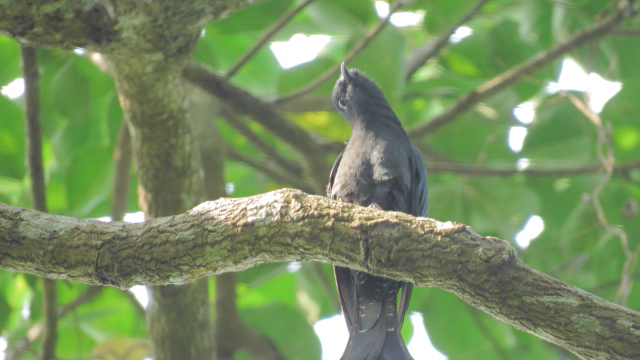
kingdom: Animalia
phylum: Chordata
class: Aves
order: Cuculiformes
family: Cuculidae
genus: Surniculus
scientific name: Surniculus lugubris
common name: Square-tailed drongo-cuckoo
